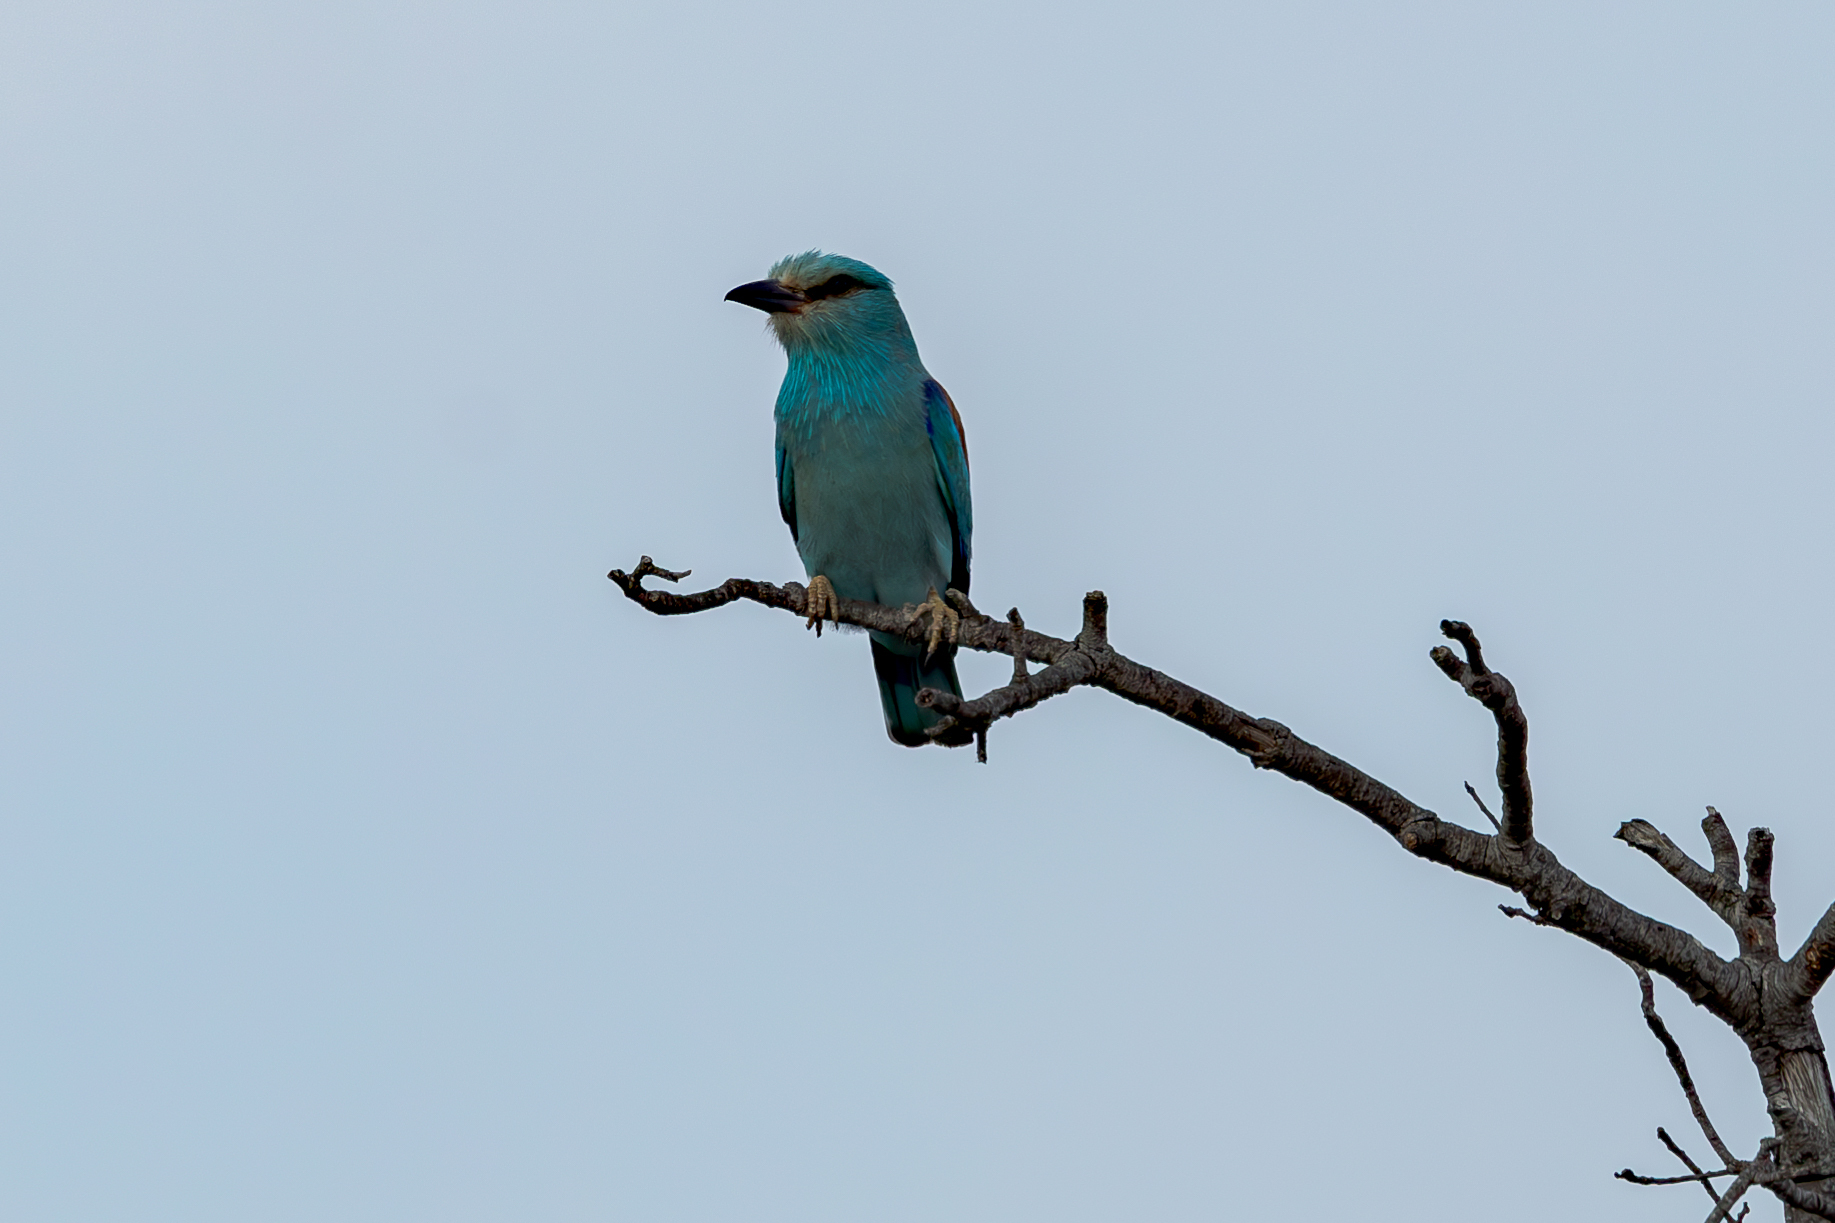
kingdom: Animalia
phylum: Chordata
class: Aves
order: Coraciiformes
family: Coraciidae
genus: Coracias
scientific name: Coracias garrulus
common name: European roller
